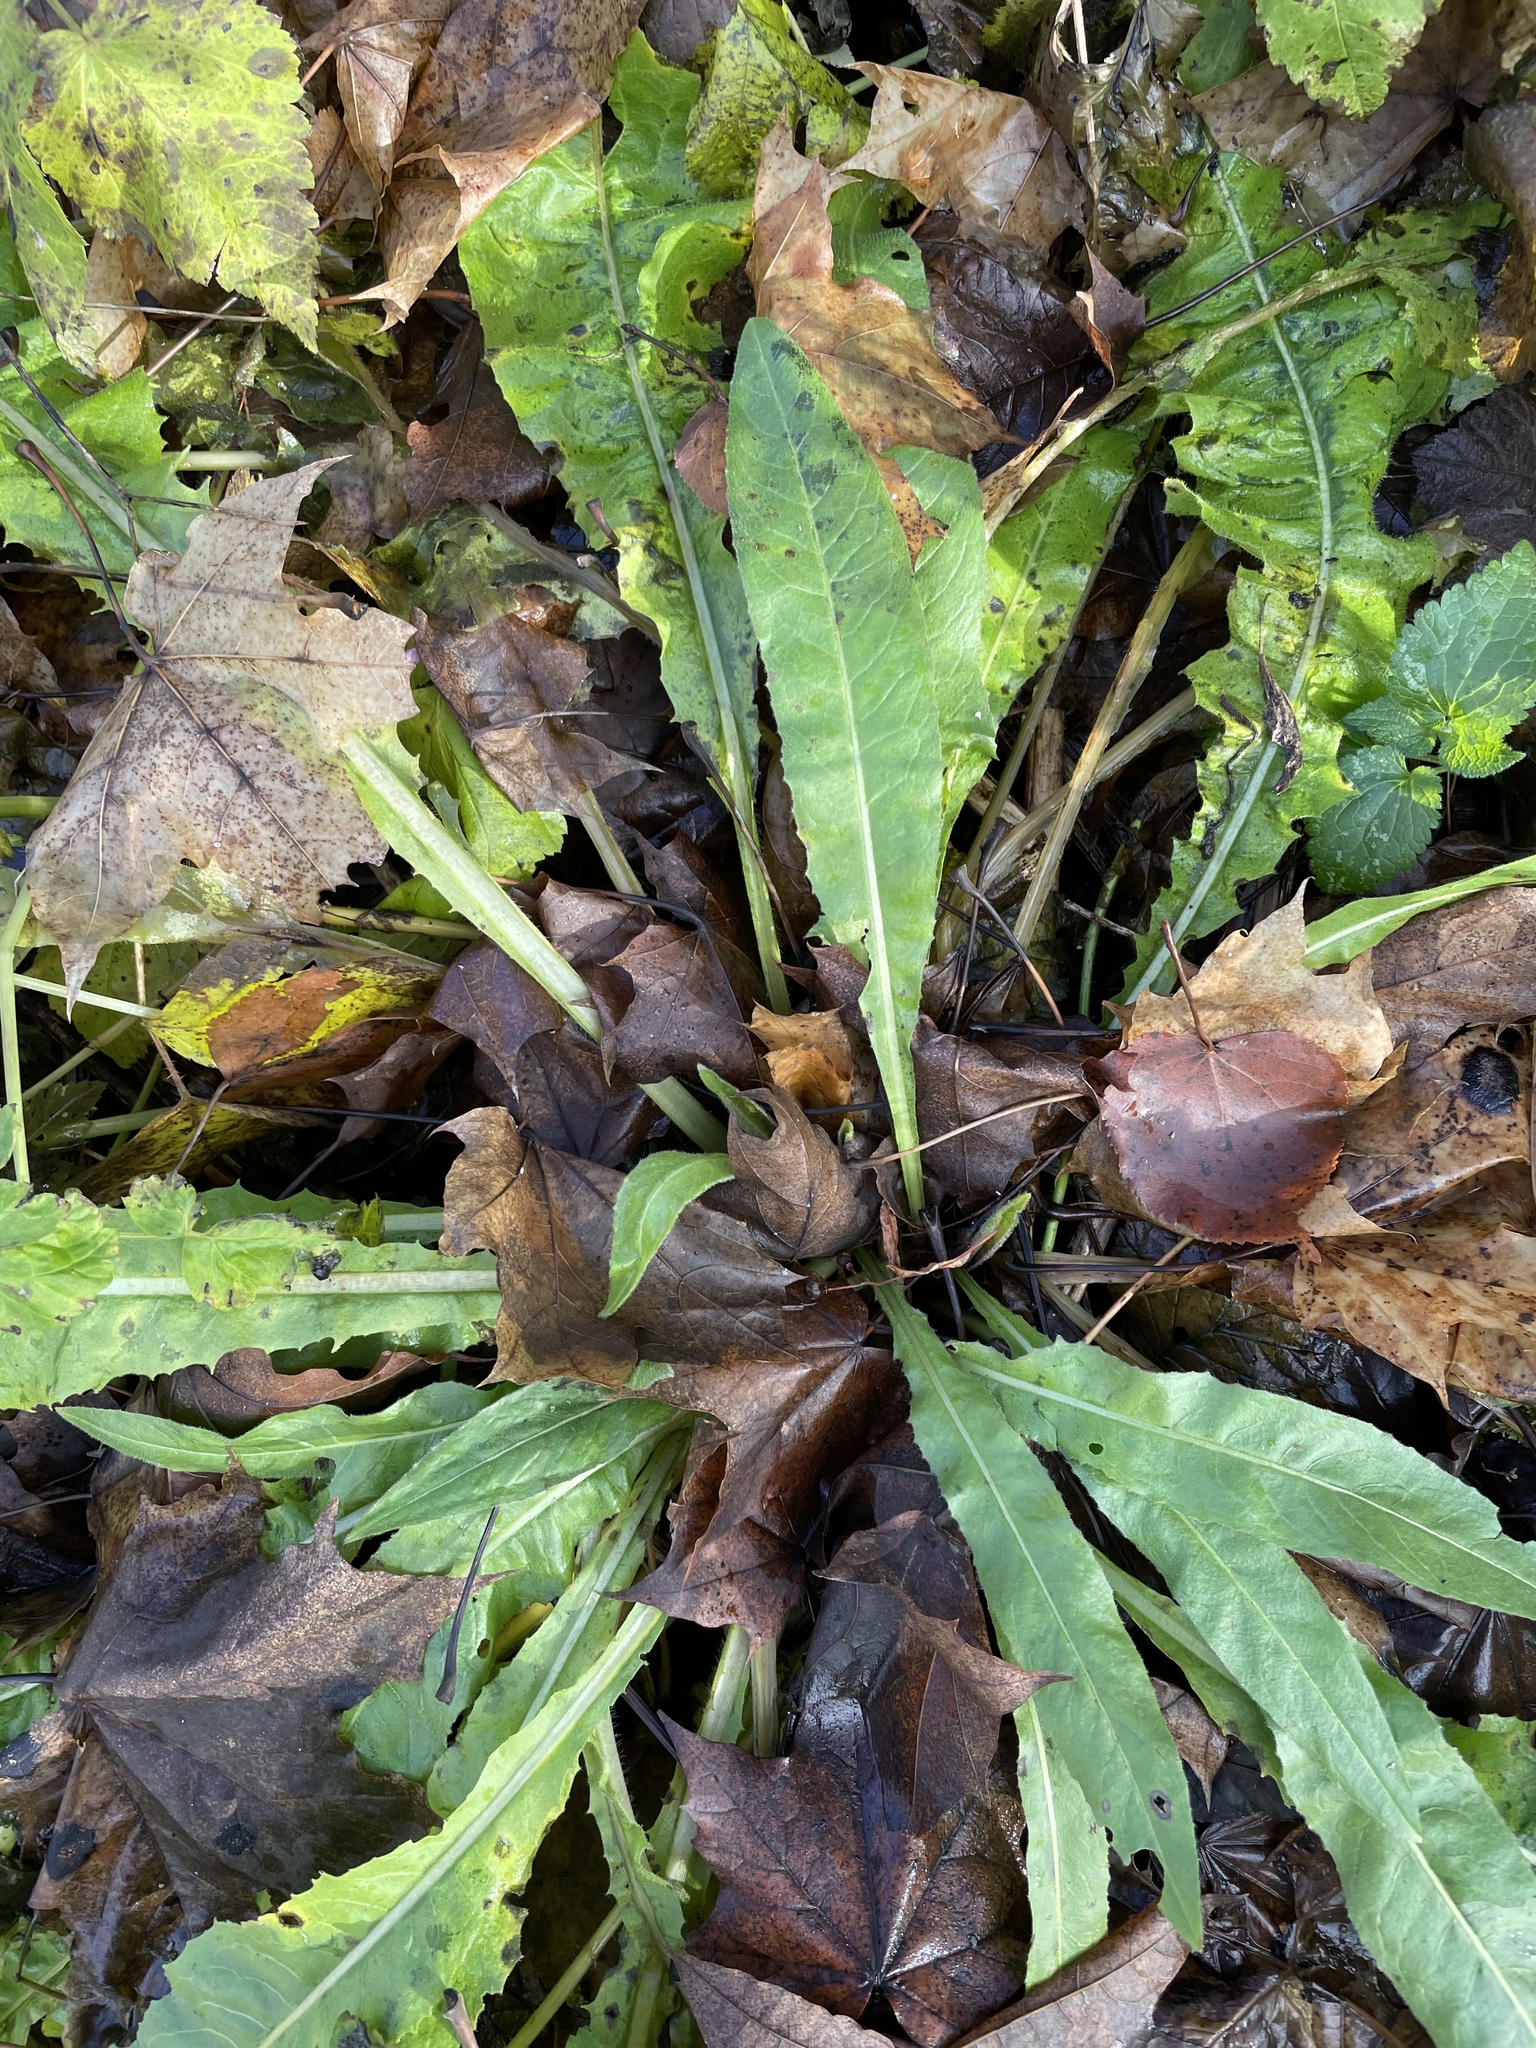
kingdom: Plantae
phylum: Tracheophyta
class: Magnoliopsida
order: Asterales
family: Asteraceae
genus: Picris
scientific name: Picris hieracioides
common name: Hawkweed oxtongue
